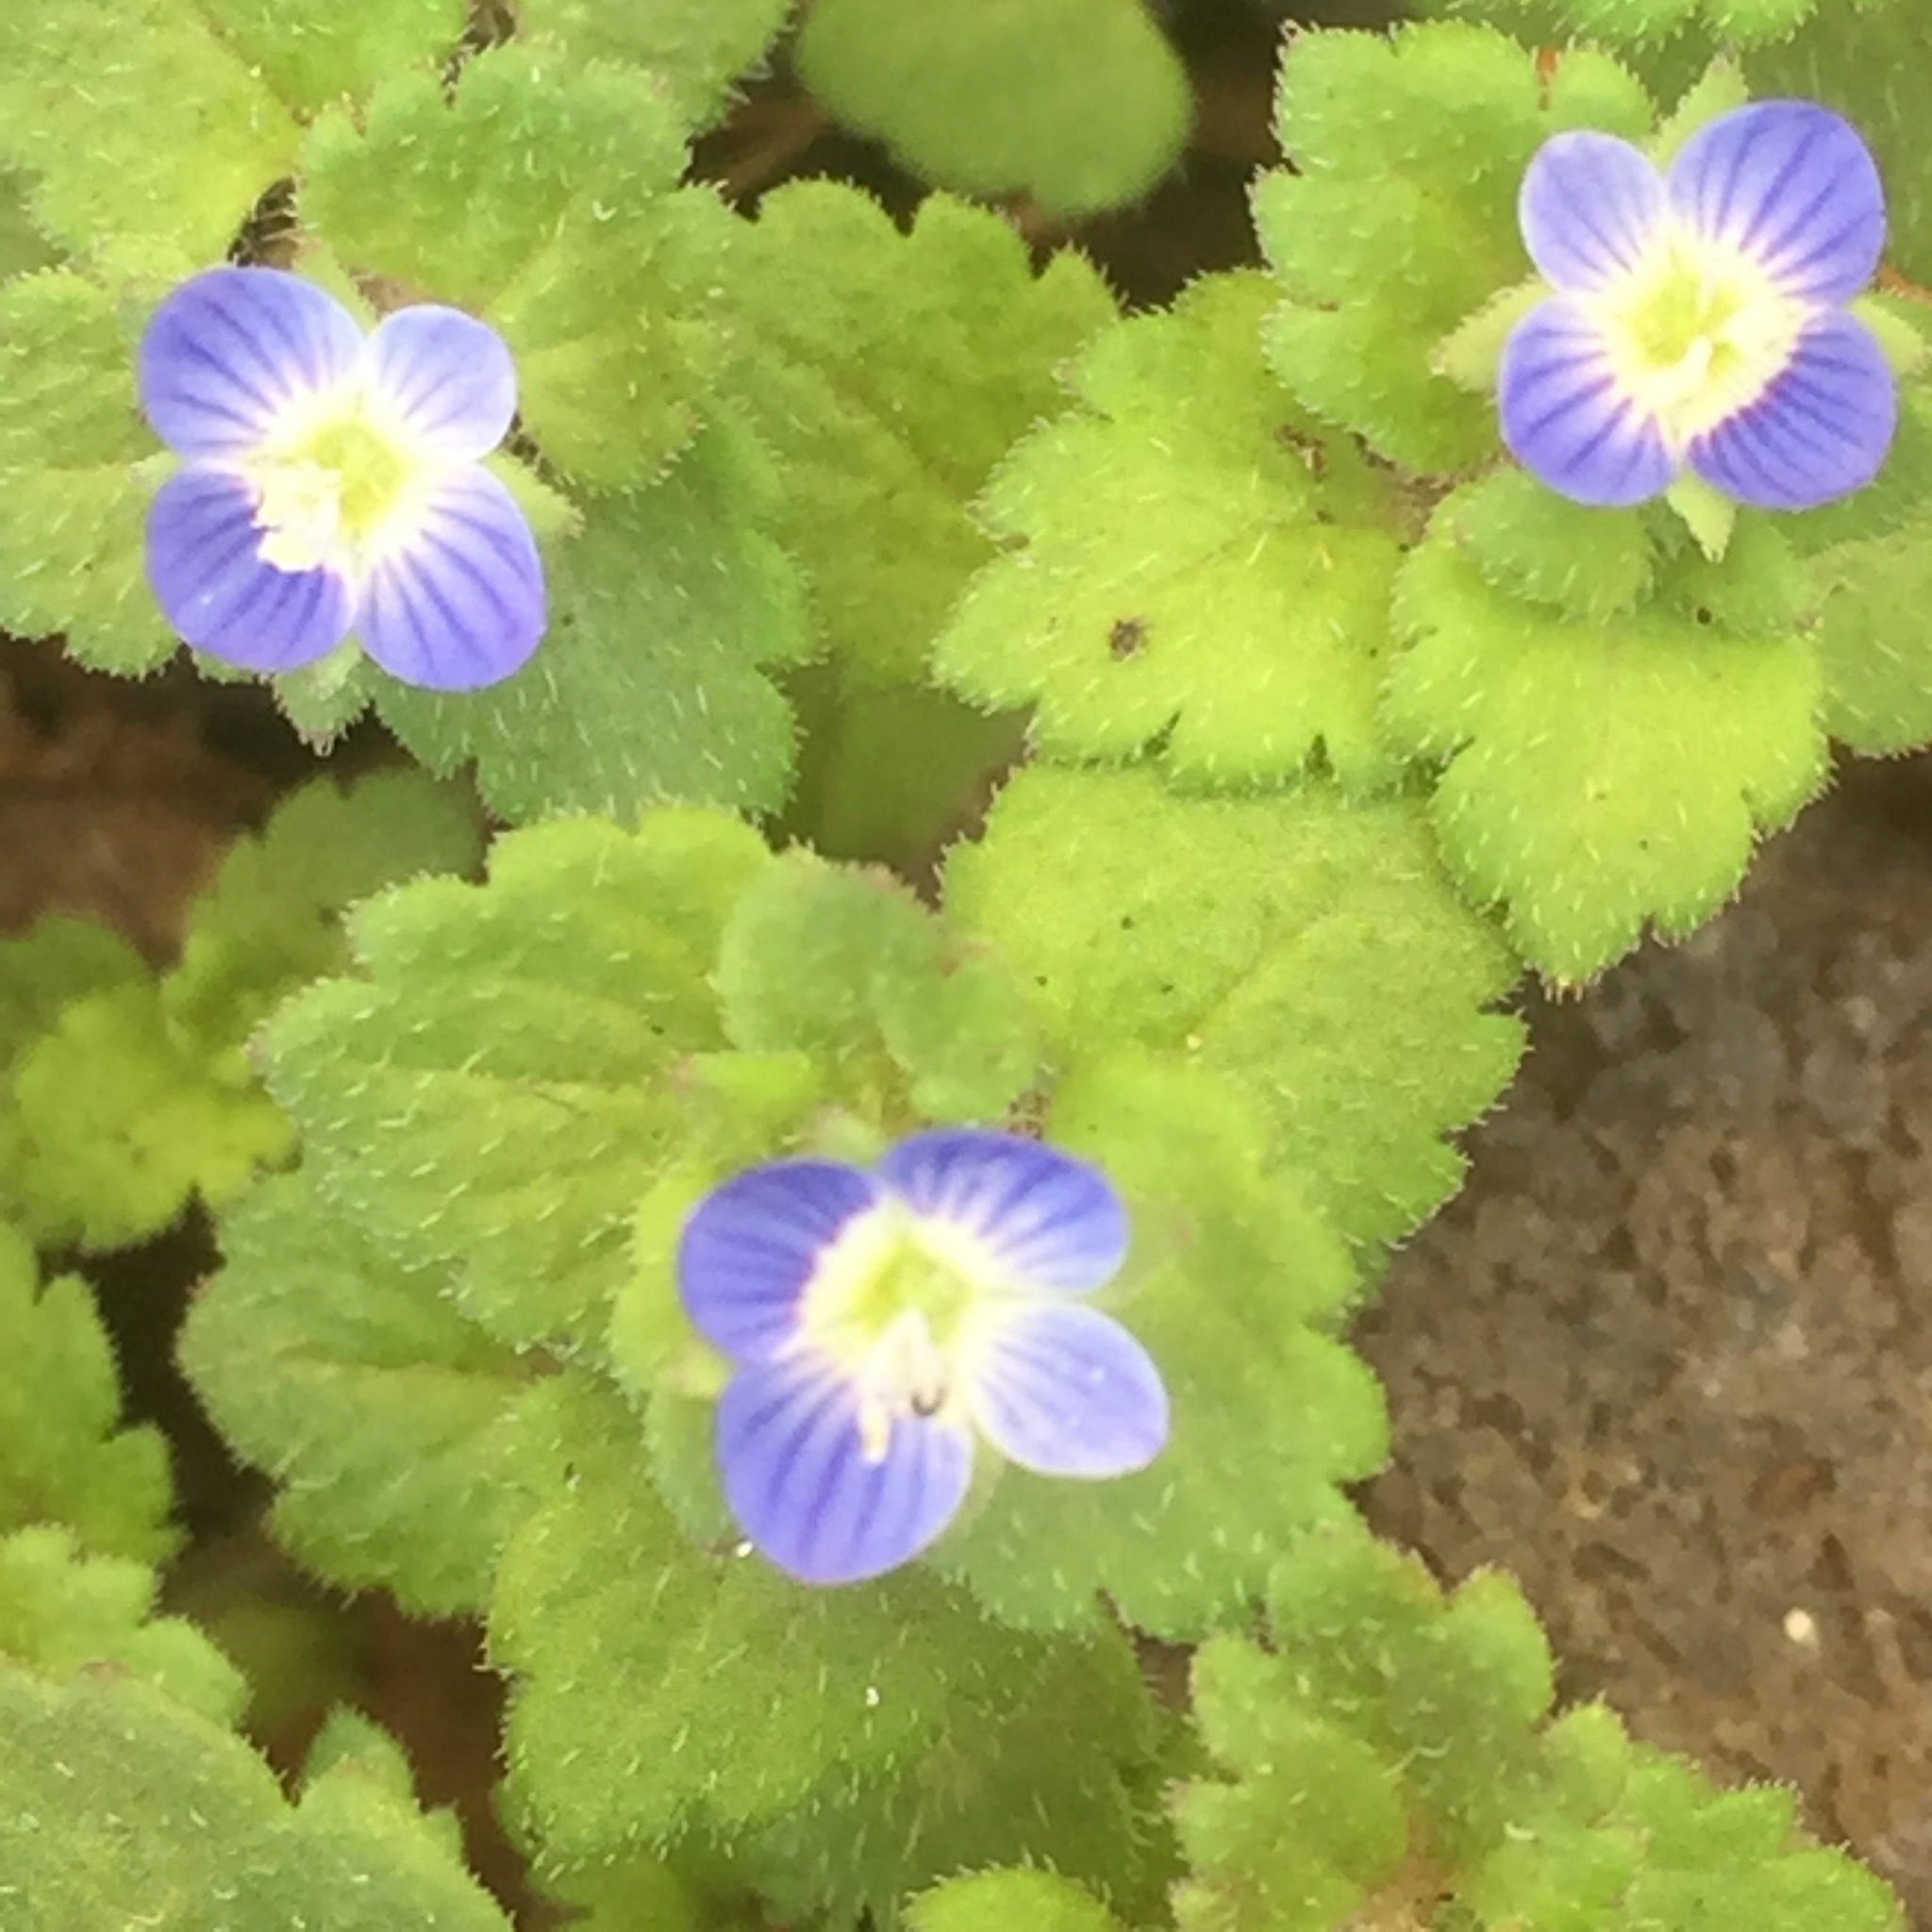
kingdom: Plantae
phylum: Tracheophyta
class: Magnoliopsida
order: Lamiales
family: Plantaginaceae
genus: Veronica
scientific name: Veronica persica
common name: Common field-speedwell
